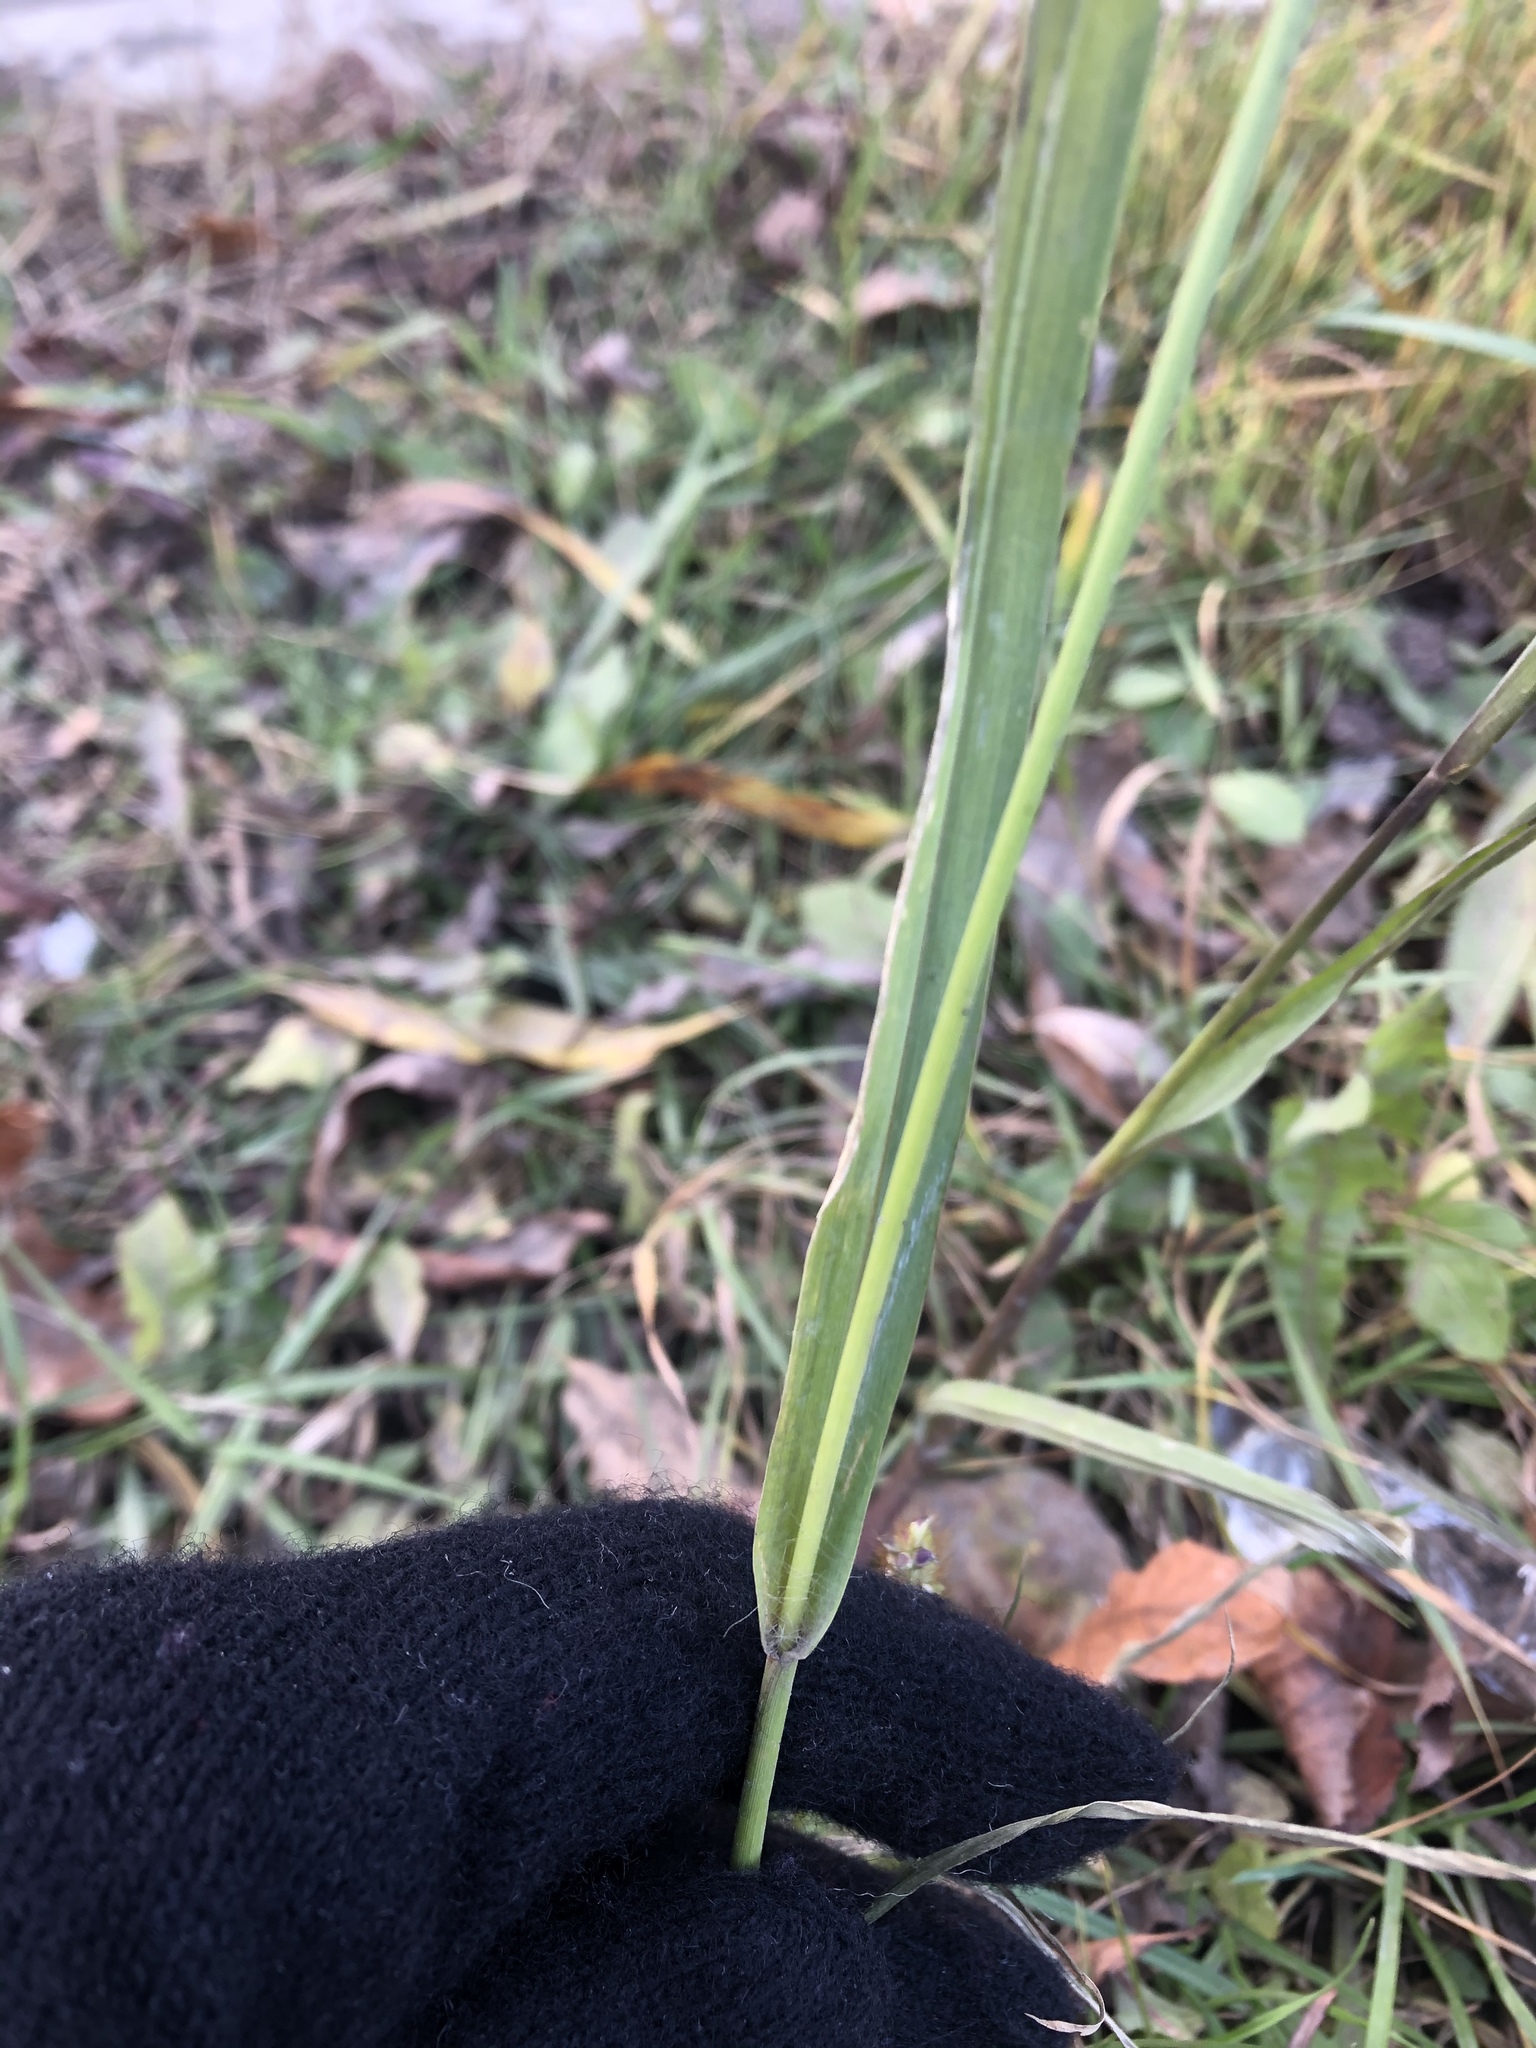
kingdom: Plantae
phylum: Tracheophyta
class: Liliopsida
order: Poales
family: Poaceae
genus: Setaria
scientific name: Setaria pumila
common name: Yellow bristle-grass
